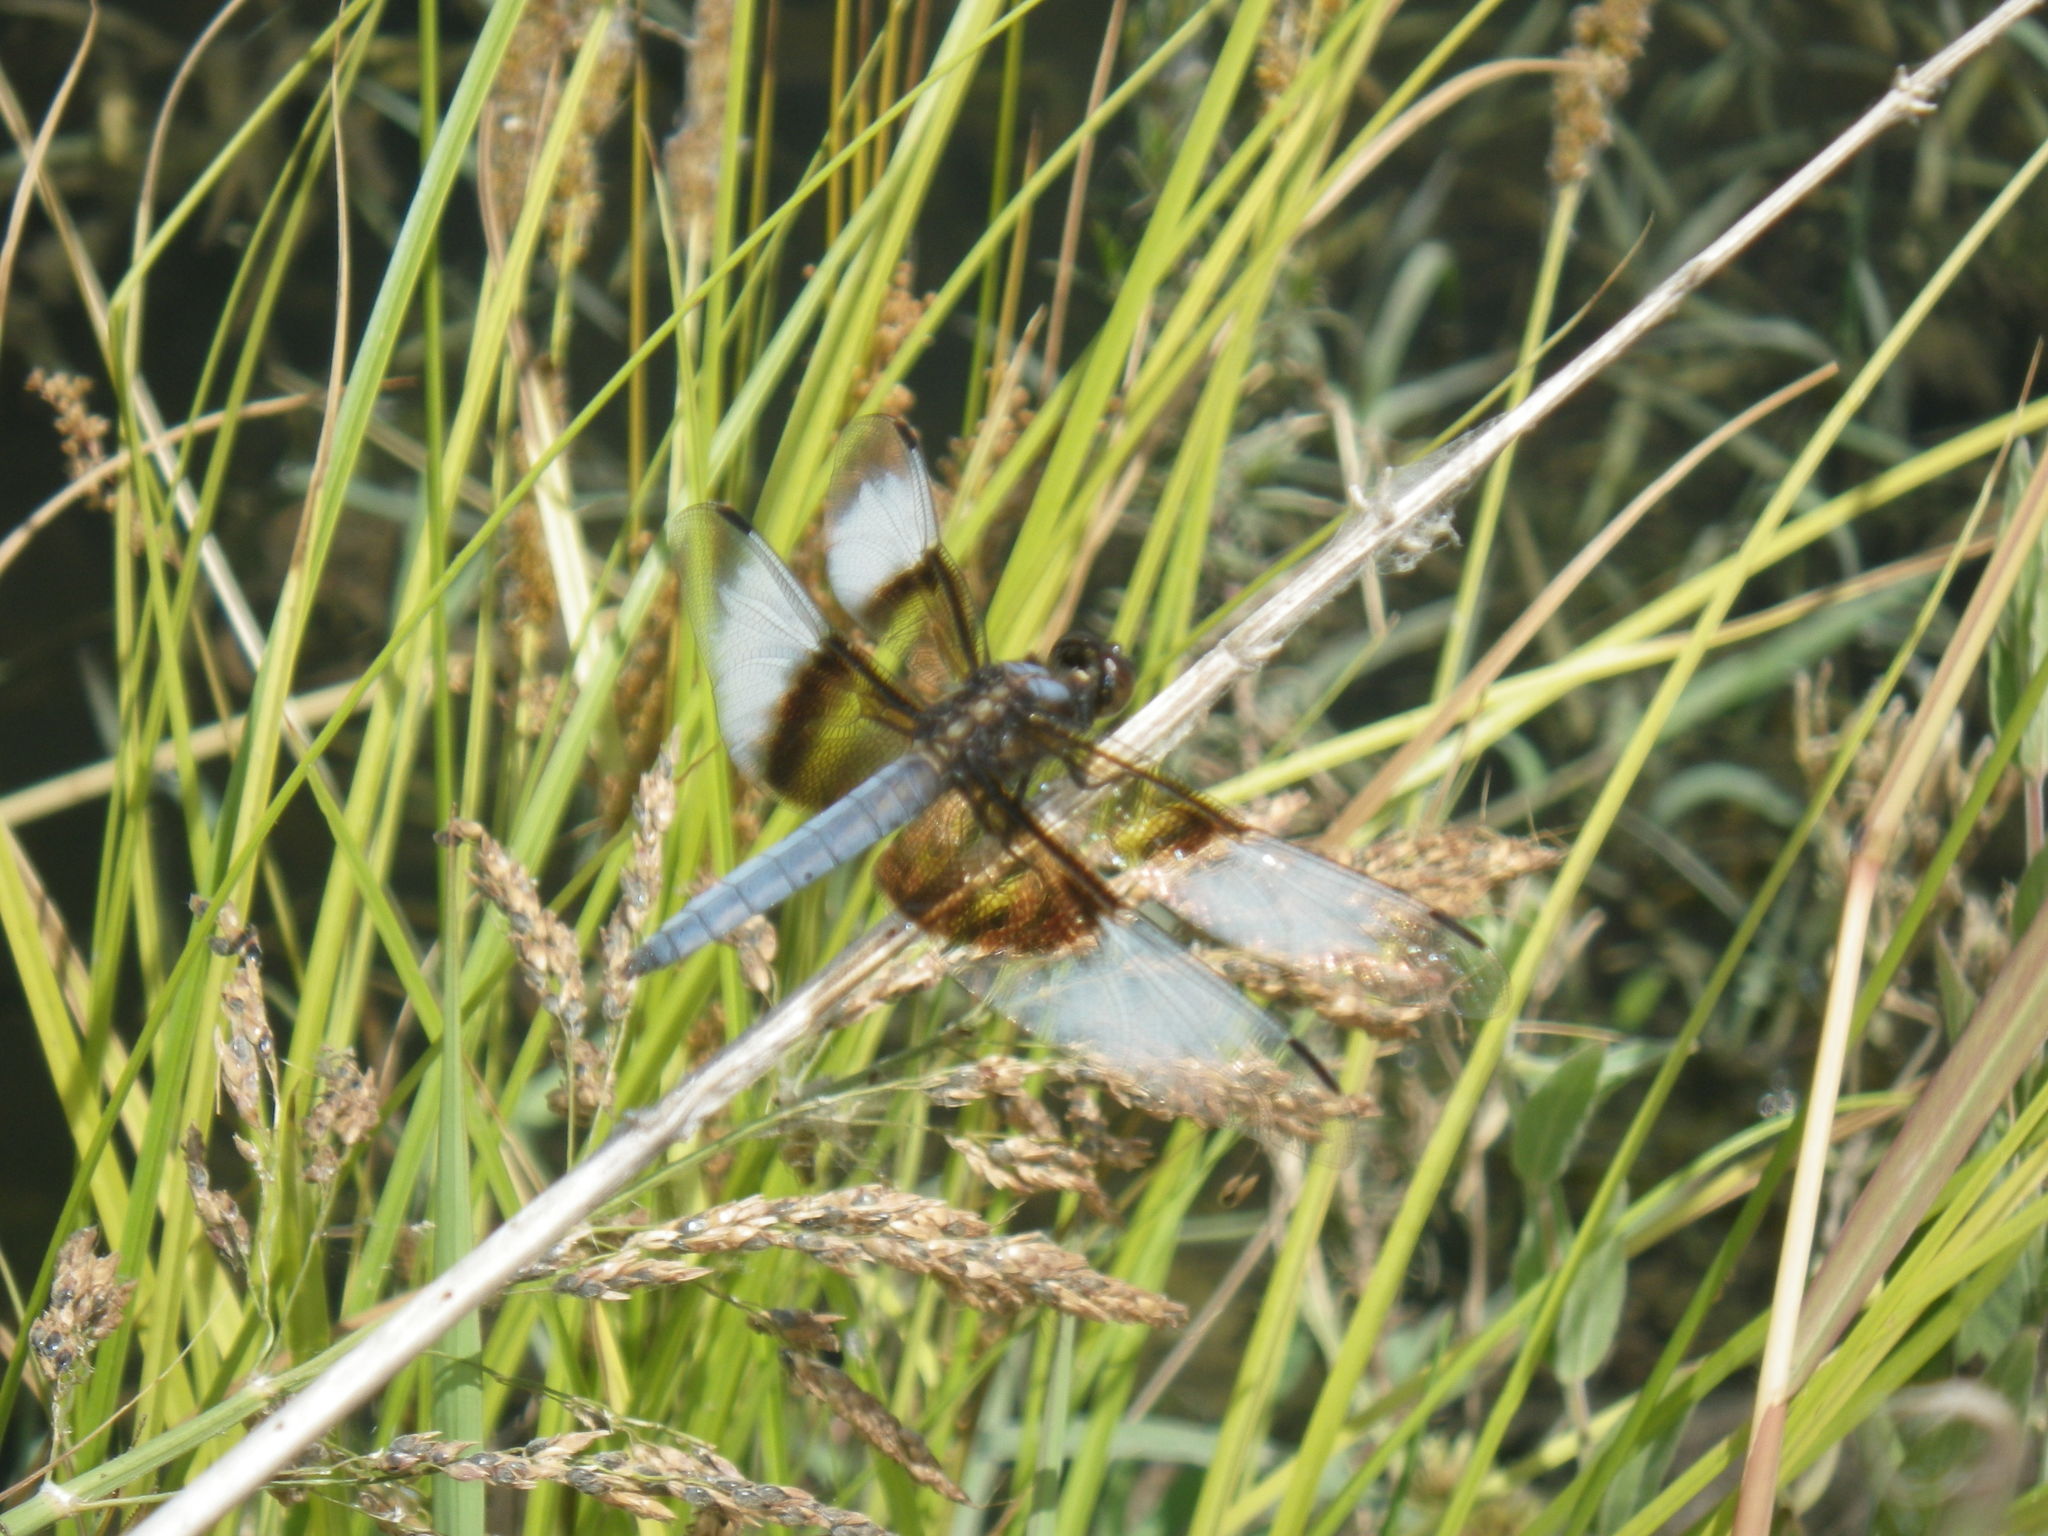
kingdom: Animalia
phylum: Arthropoda
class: Insecta
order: Odonata
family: Libellulidae
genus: Libellula
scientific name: Libellula luctuosa
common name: Widow skimmer
